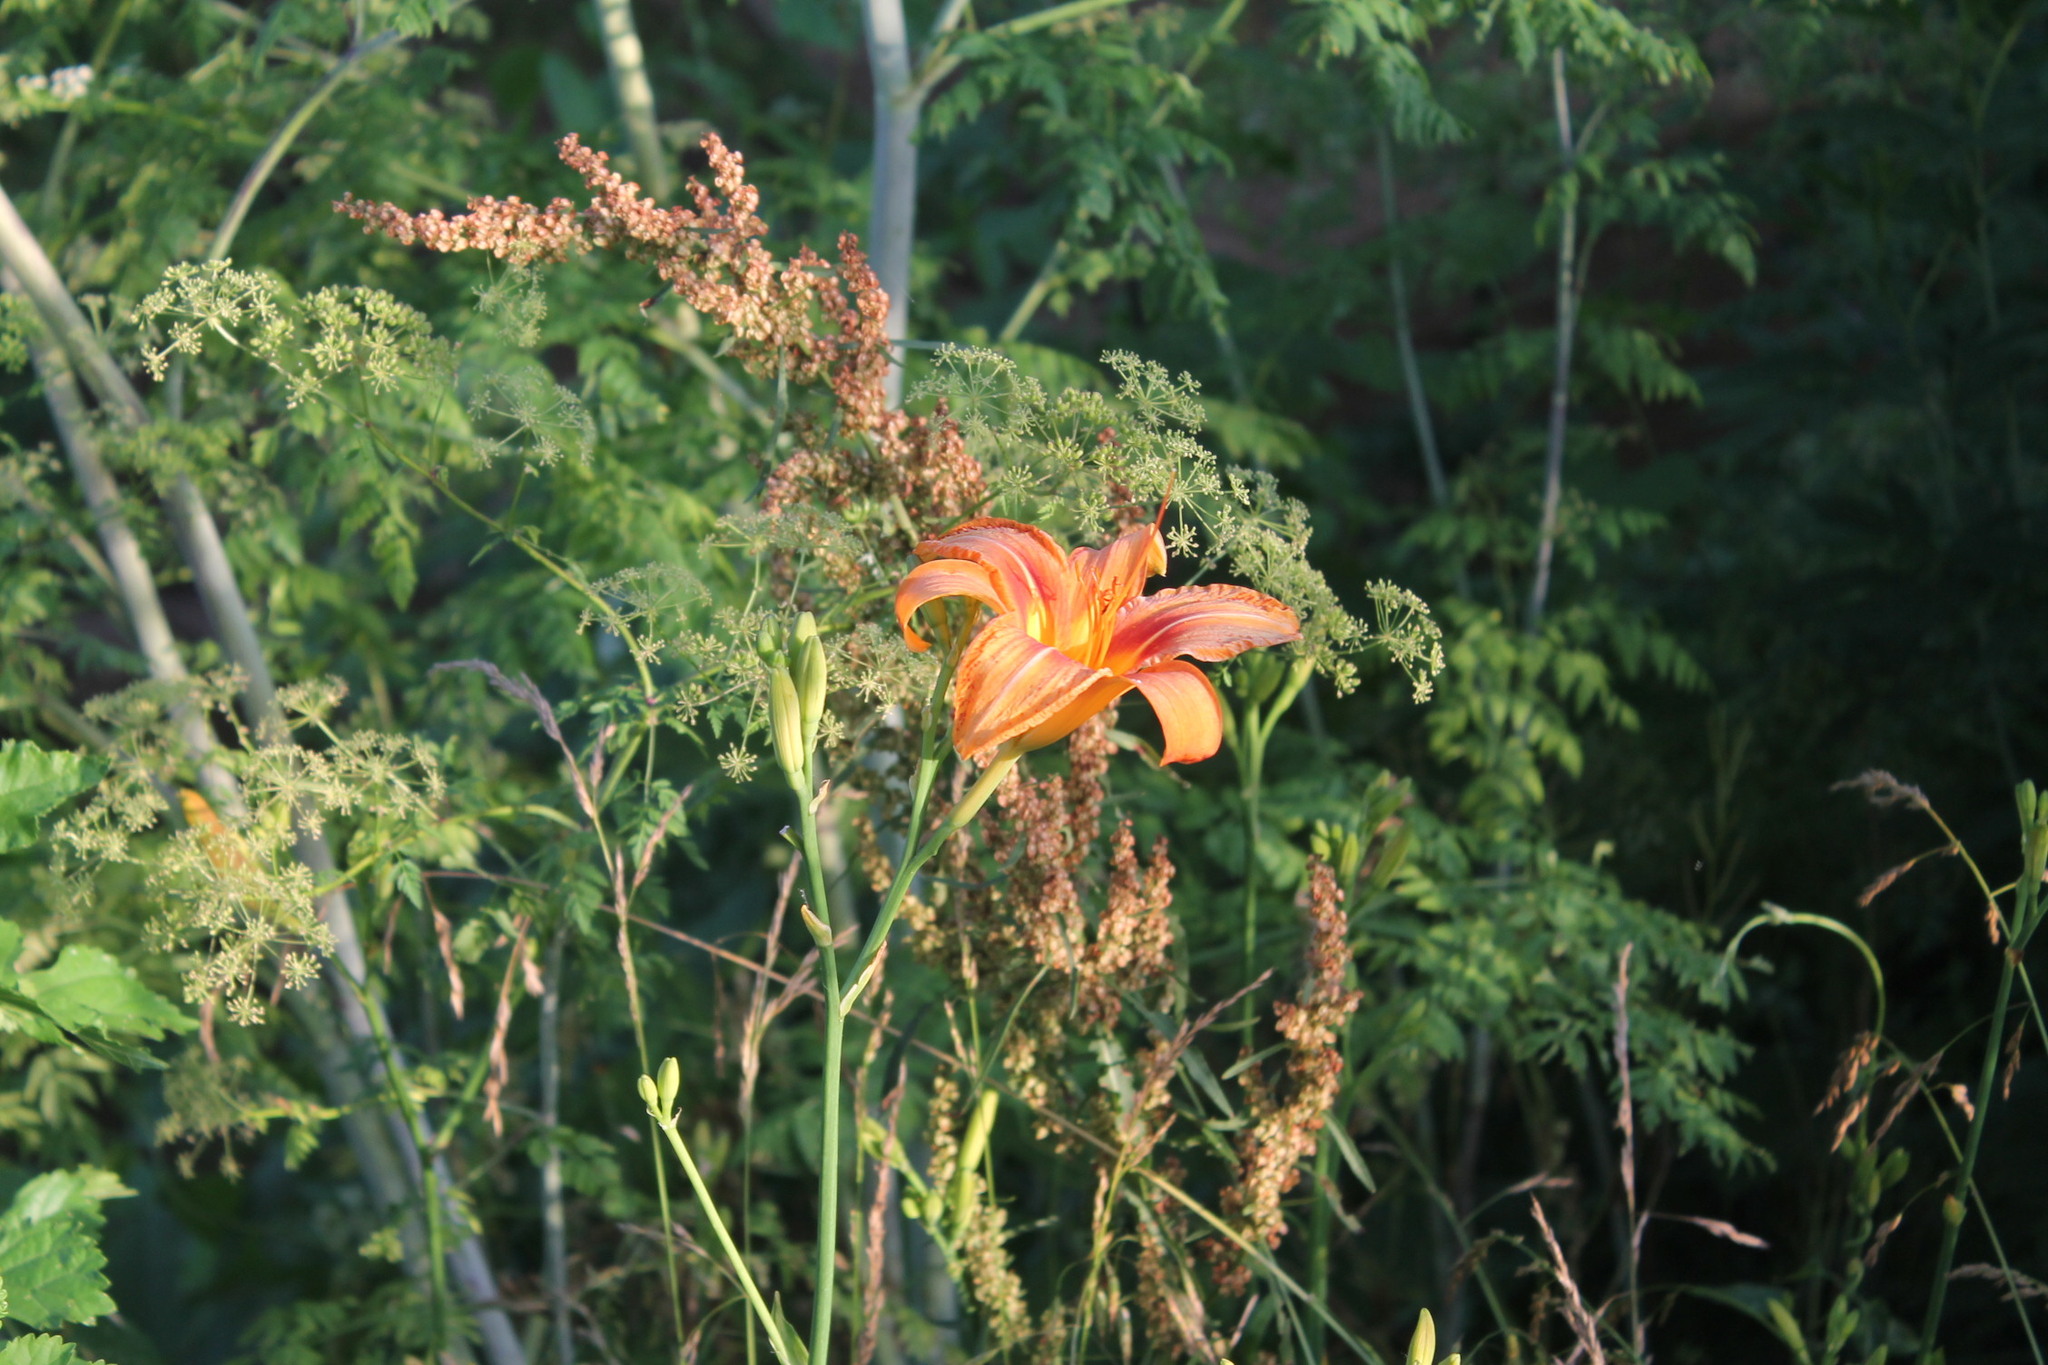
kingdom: Plantae
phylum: Tracheophyta
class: Liliopsida
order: Asparagales
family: Asphodelaceae
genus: Hemerocallis
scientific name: Hemerocallis fulva
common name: Orange day-lily
